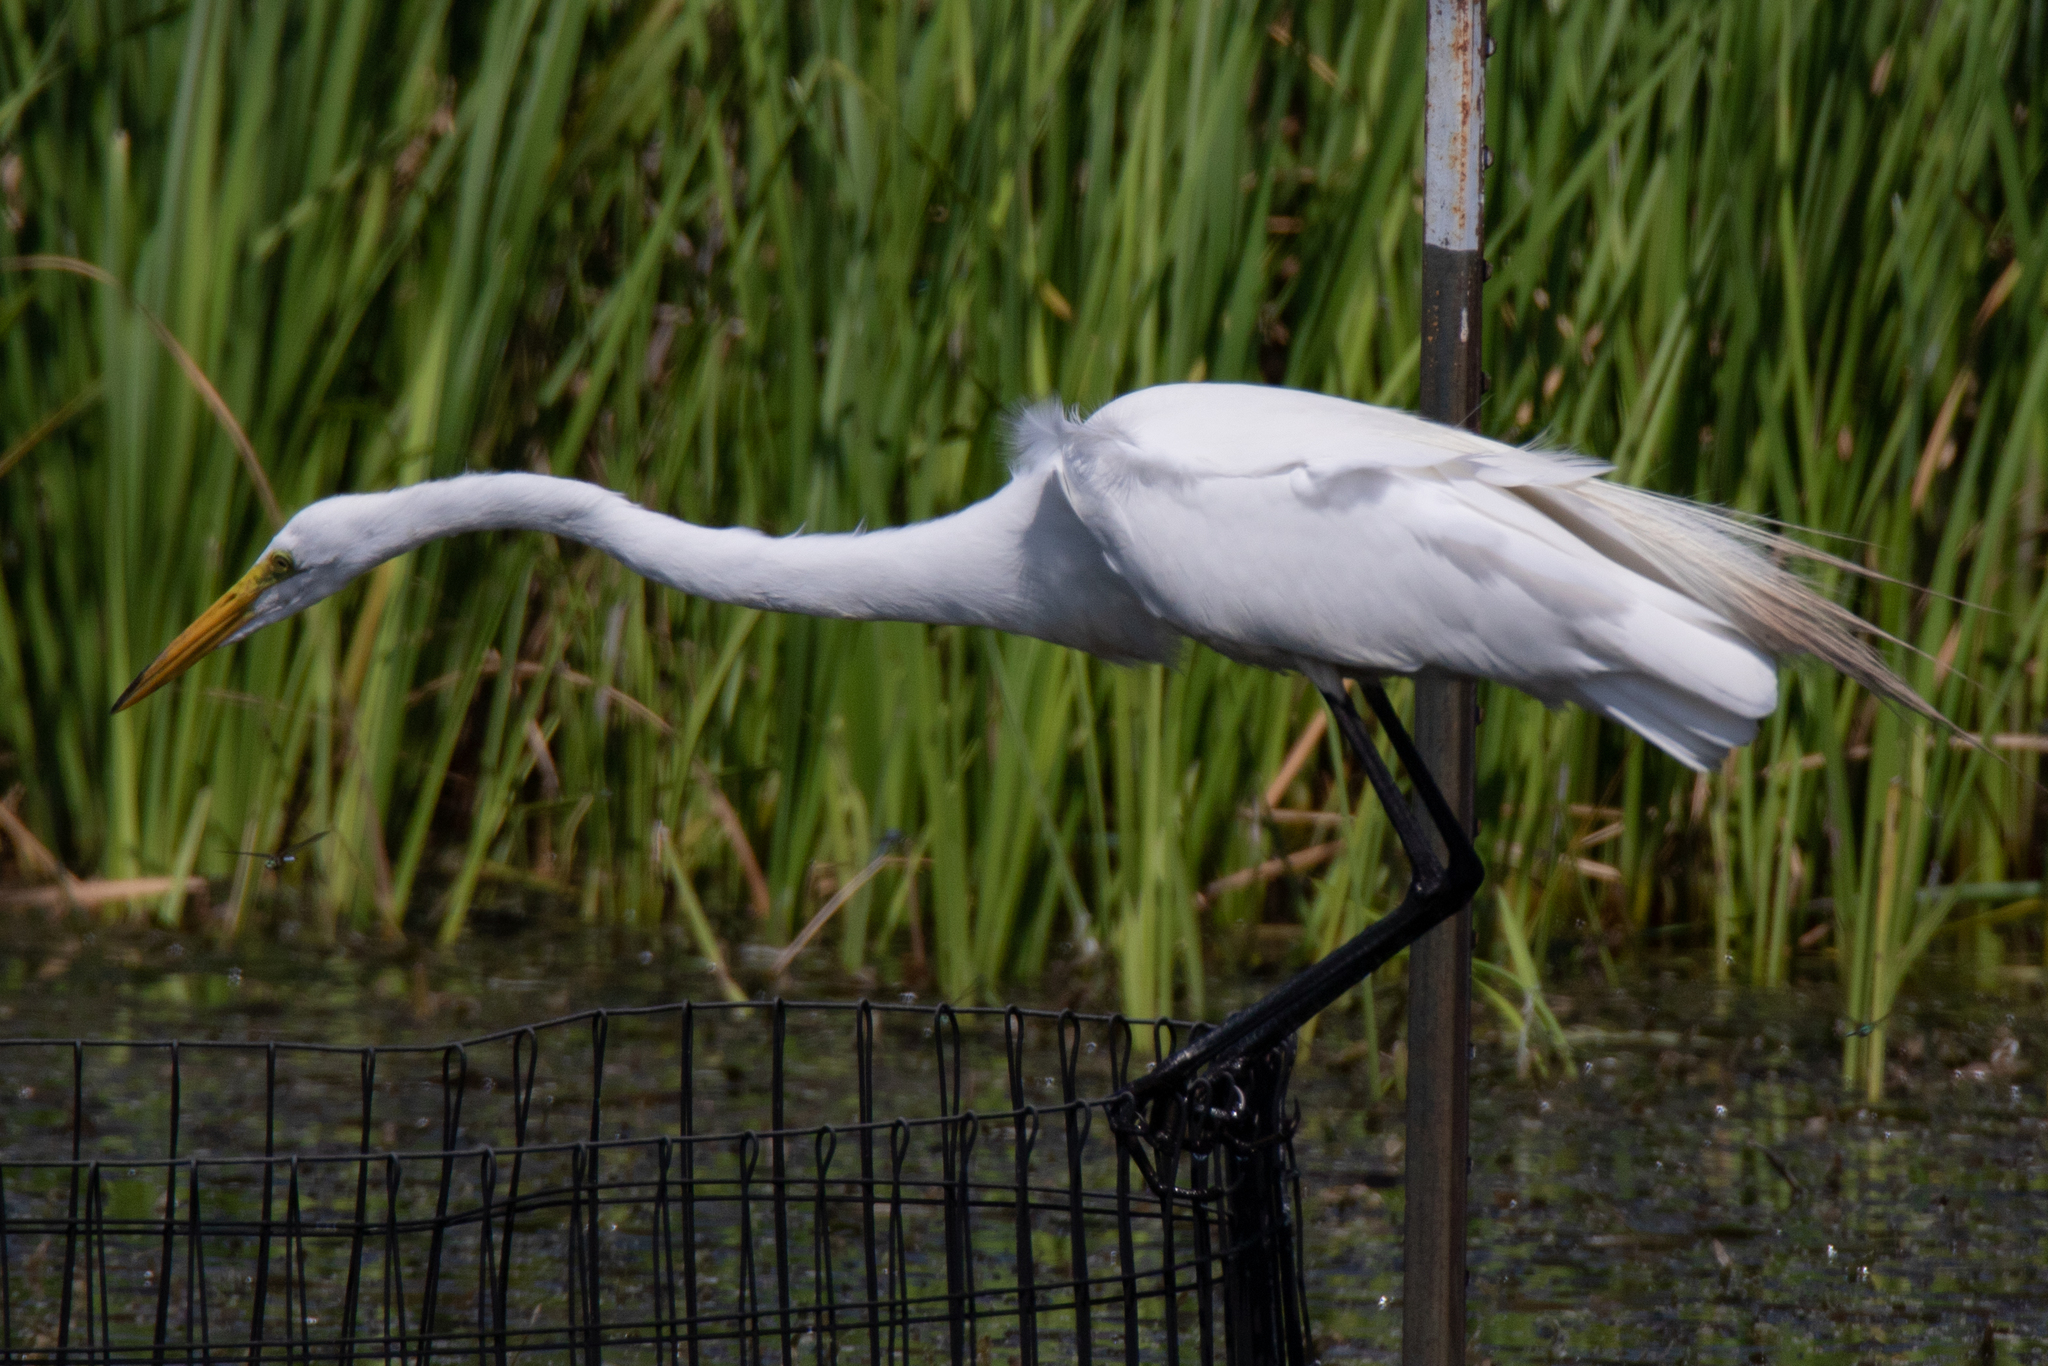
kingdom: Animalia
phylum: Chordata
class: Aves
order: Pelecaniformes
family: Ardeidae
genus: Ardea
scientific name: Ardea alba
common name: Great egret
